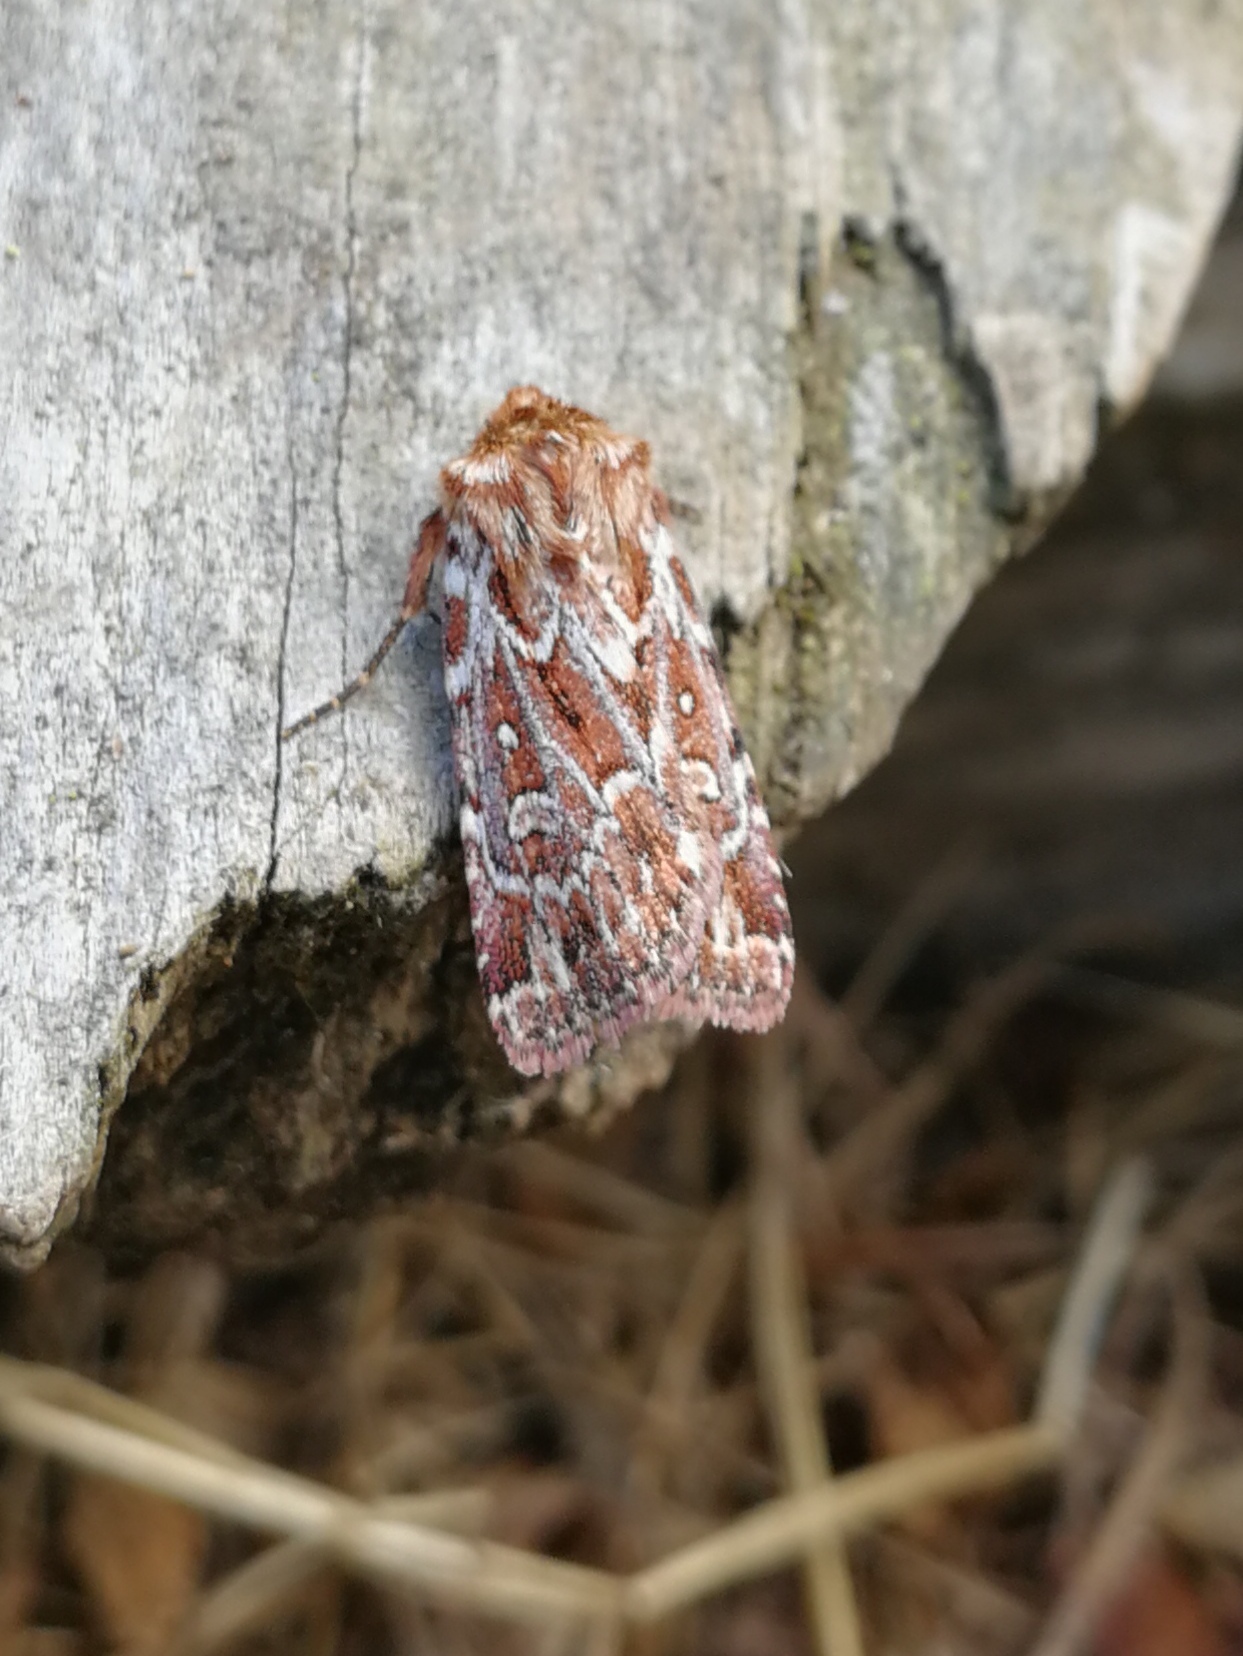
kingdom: Animalia
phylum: Arthropoda
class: Insecta
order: Lepidoptera
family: Noctuidae
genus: Lycophotia
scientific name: Lycophotia porphyrea
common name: True lover's knot
